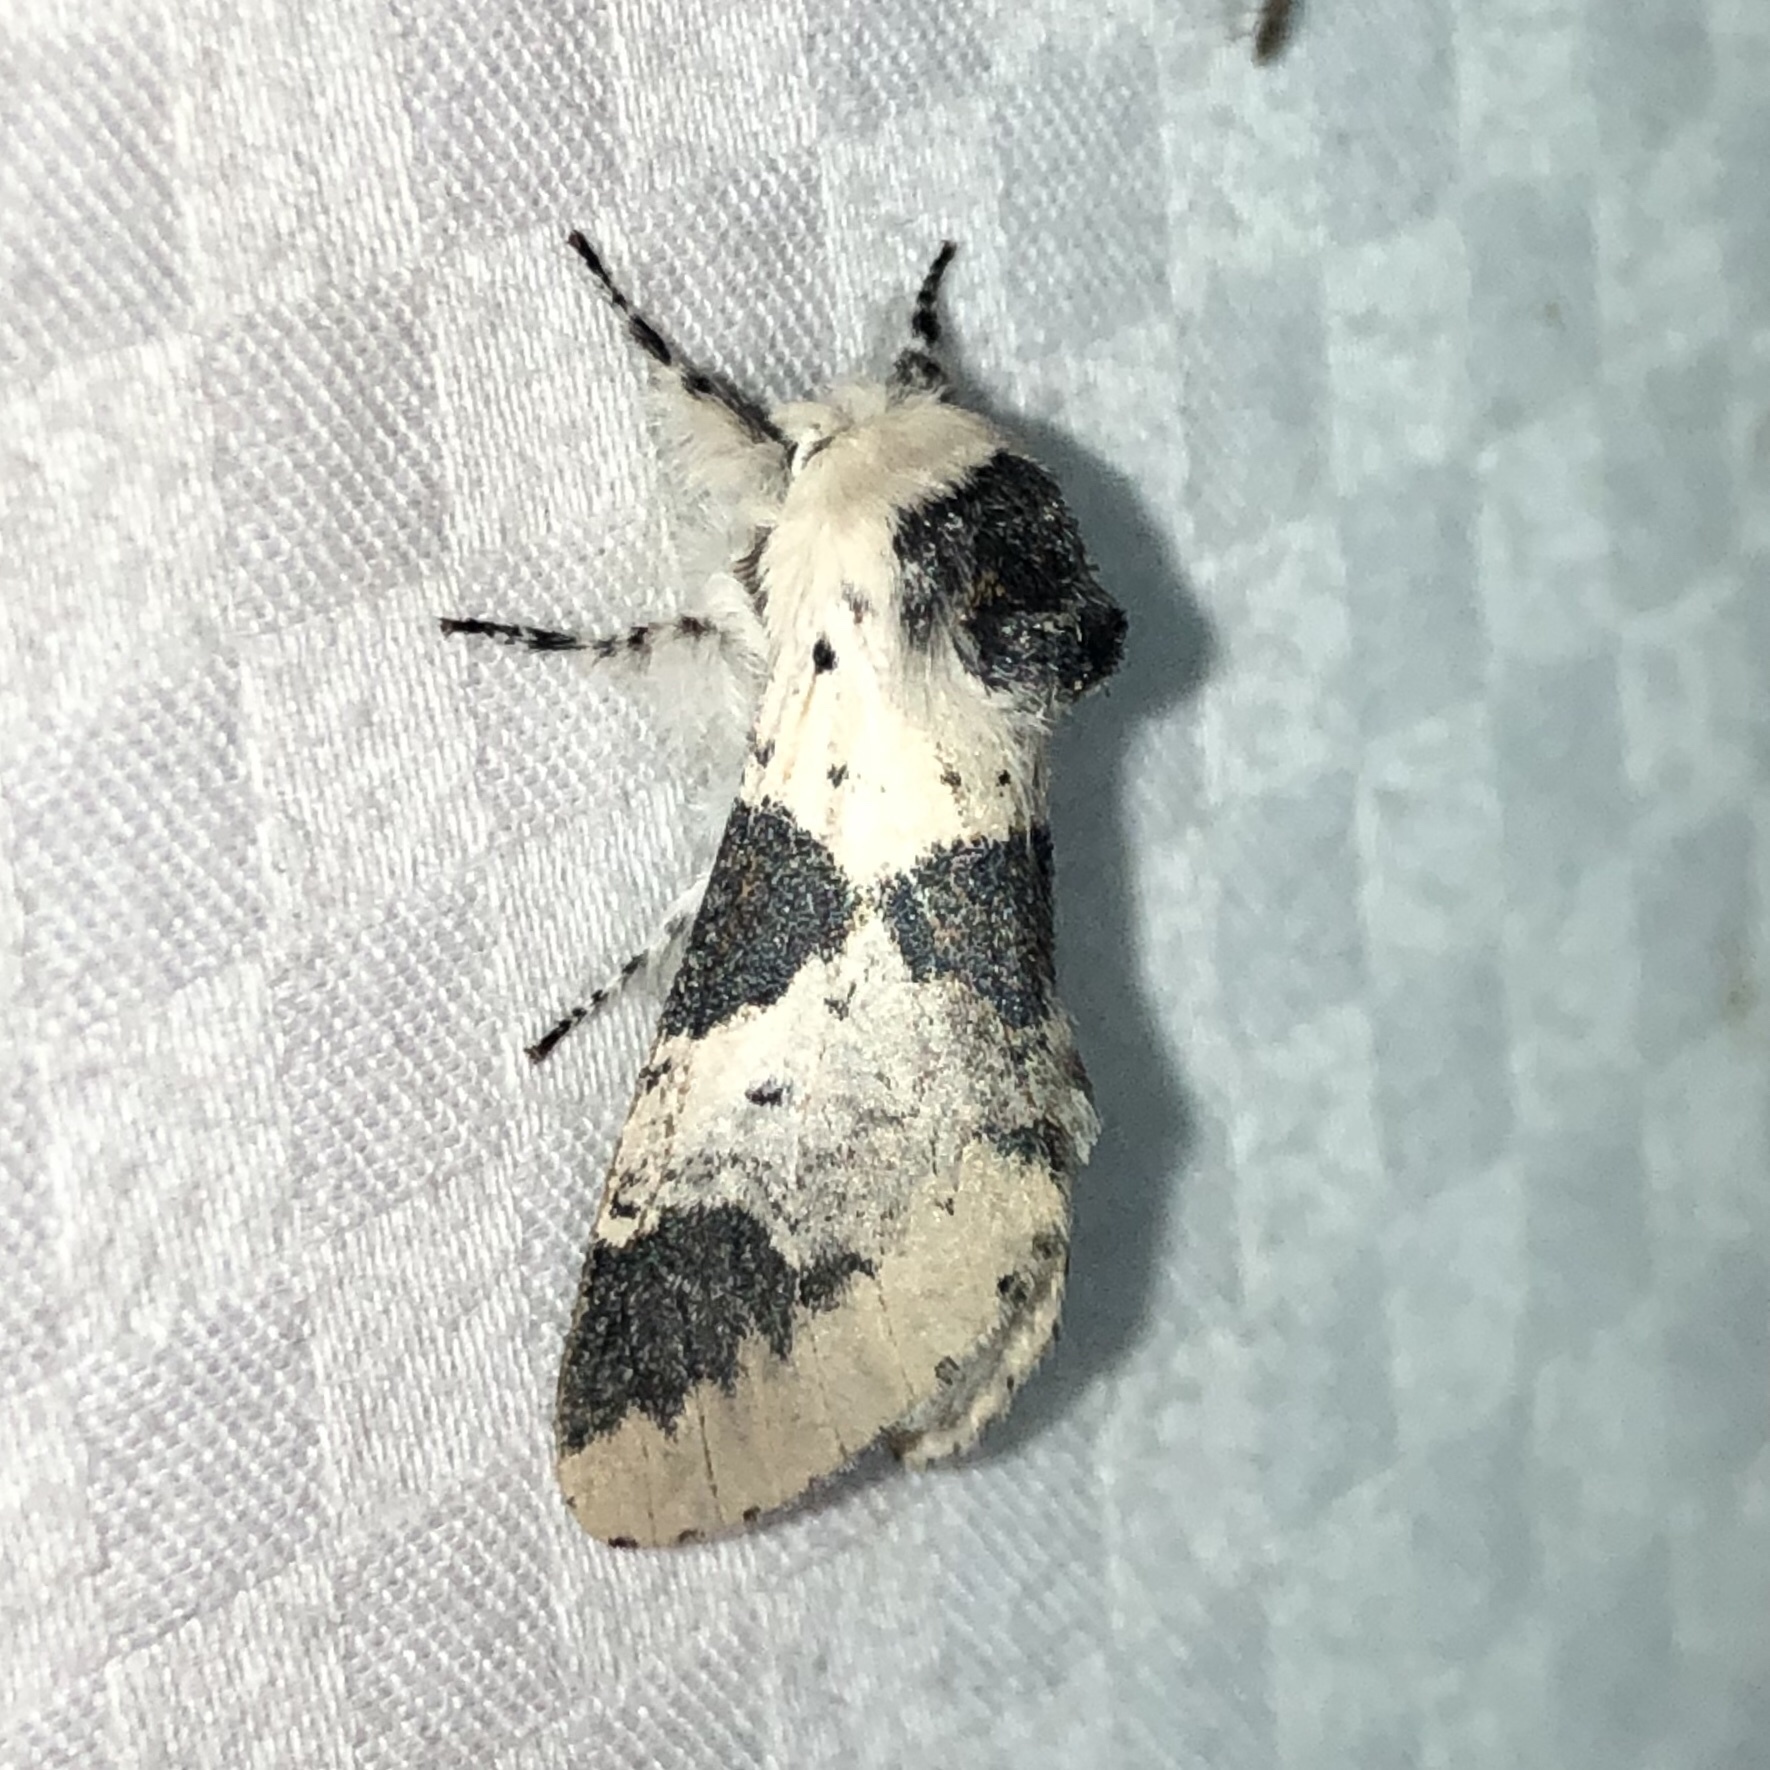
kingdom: Animalia
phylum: Arthropoda
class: Insecta
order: Lepidoptera
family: Notodontidae
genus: Furcula
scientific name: Furcula modesta
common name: Modest furcula moth
